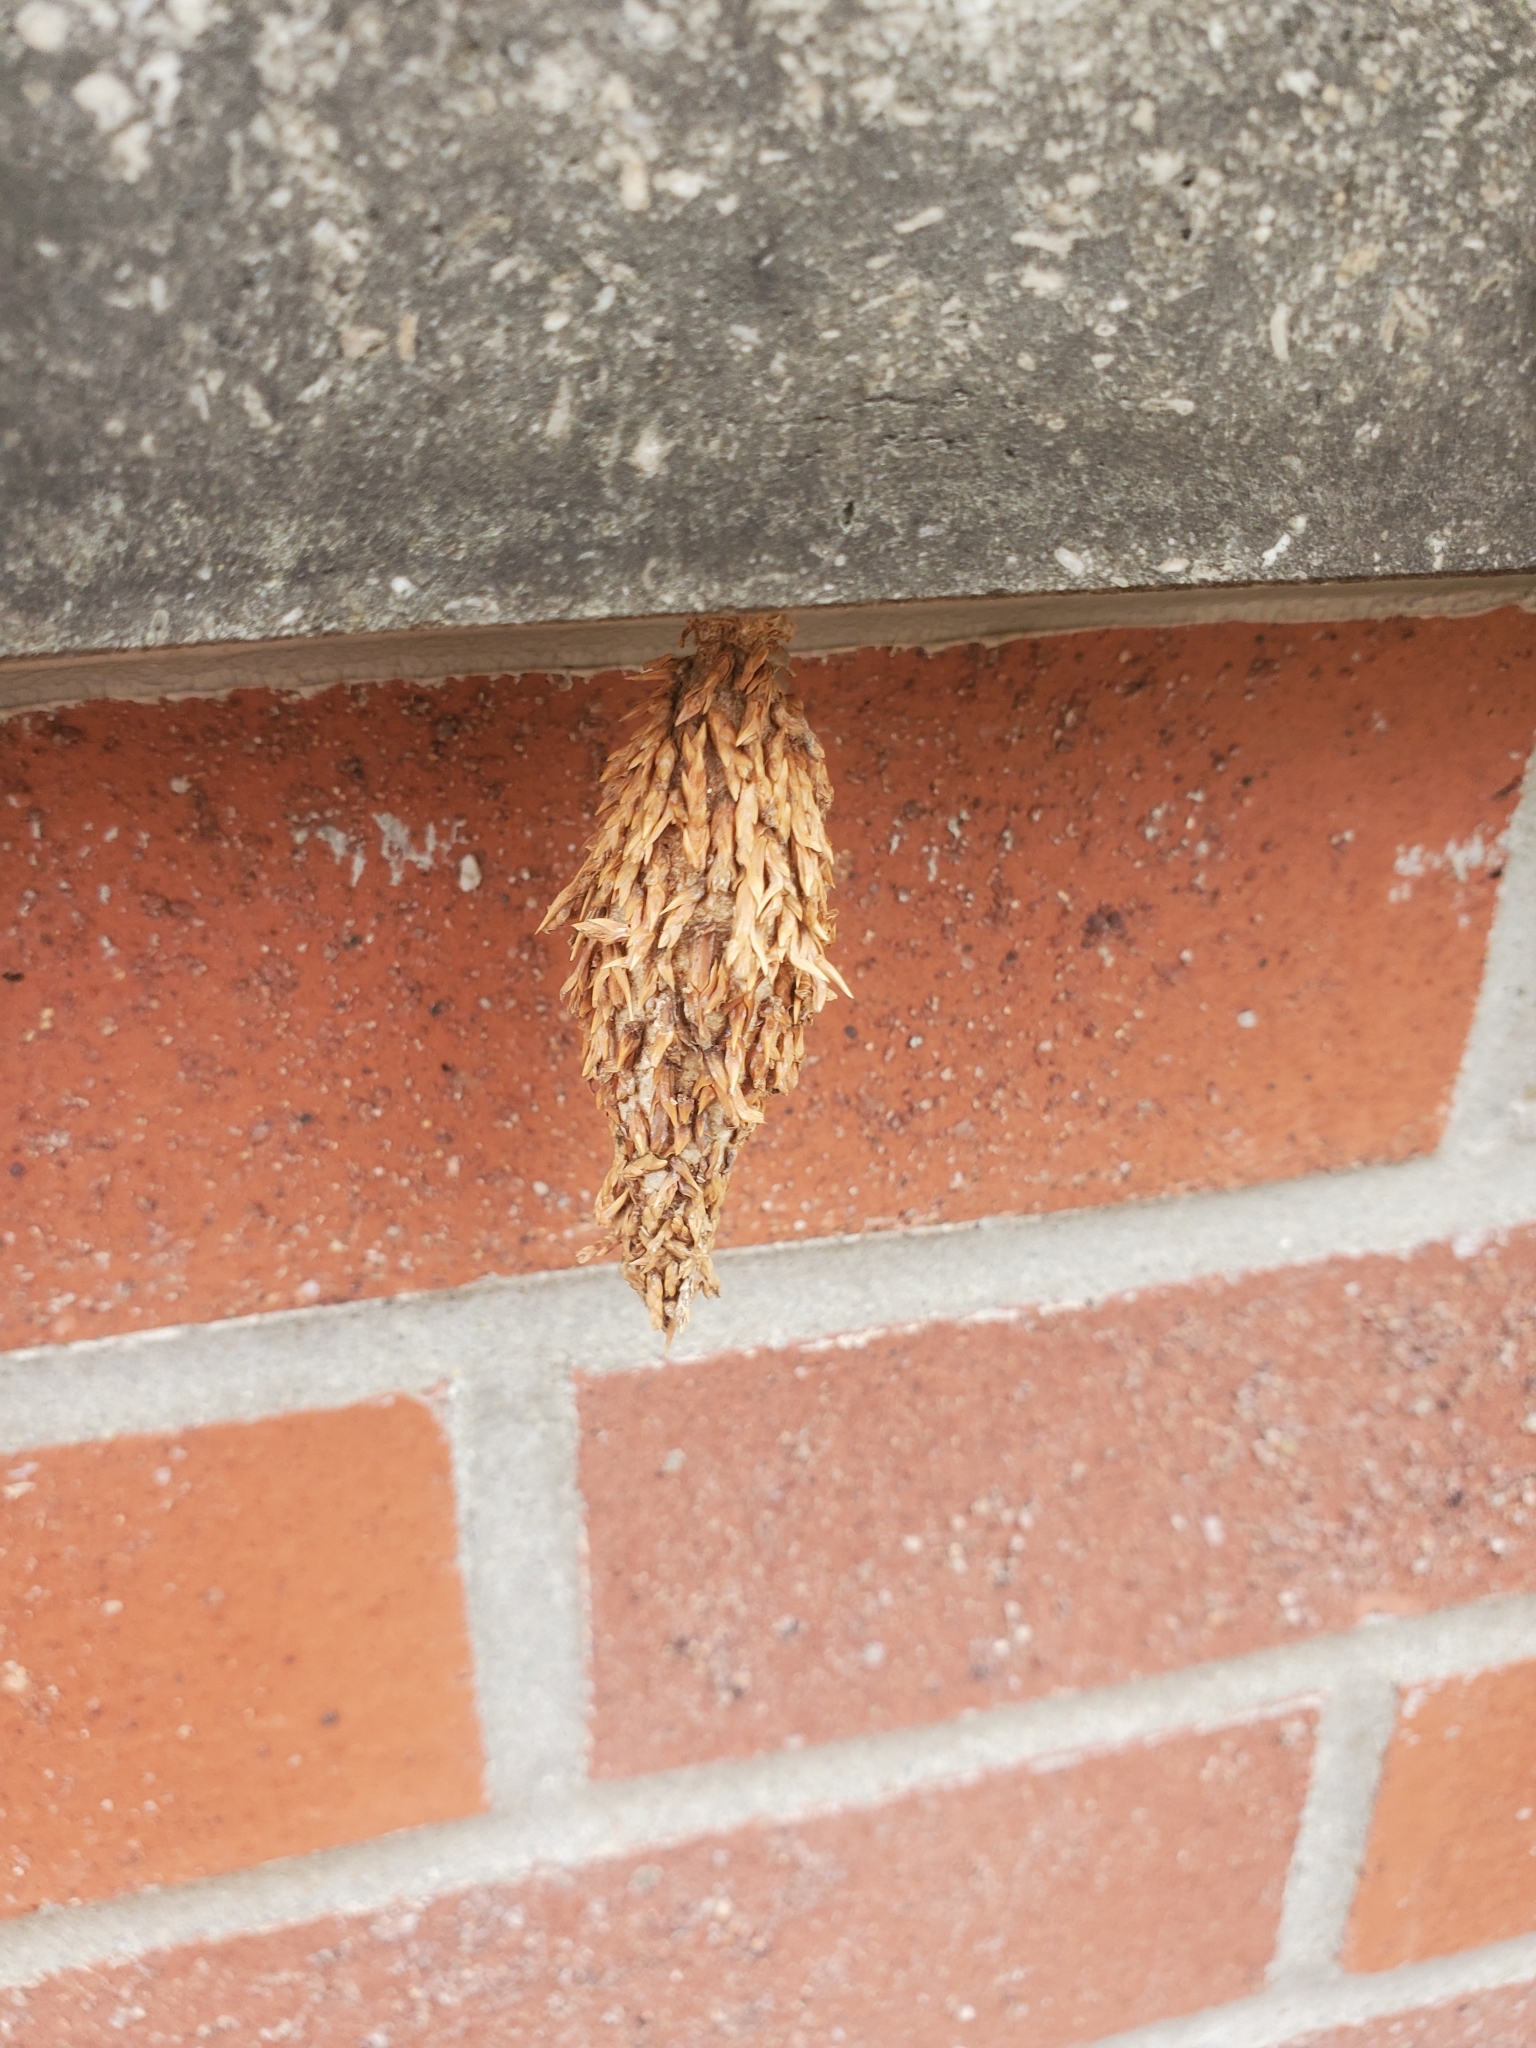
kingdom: Animalia
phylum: Arthropoda
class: Insecta
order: Lepidoptera
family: Psychidae
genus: Thyridopteryx
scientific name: Thyridopteryx ephemeraeformis
